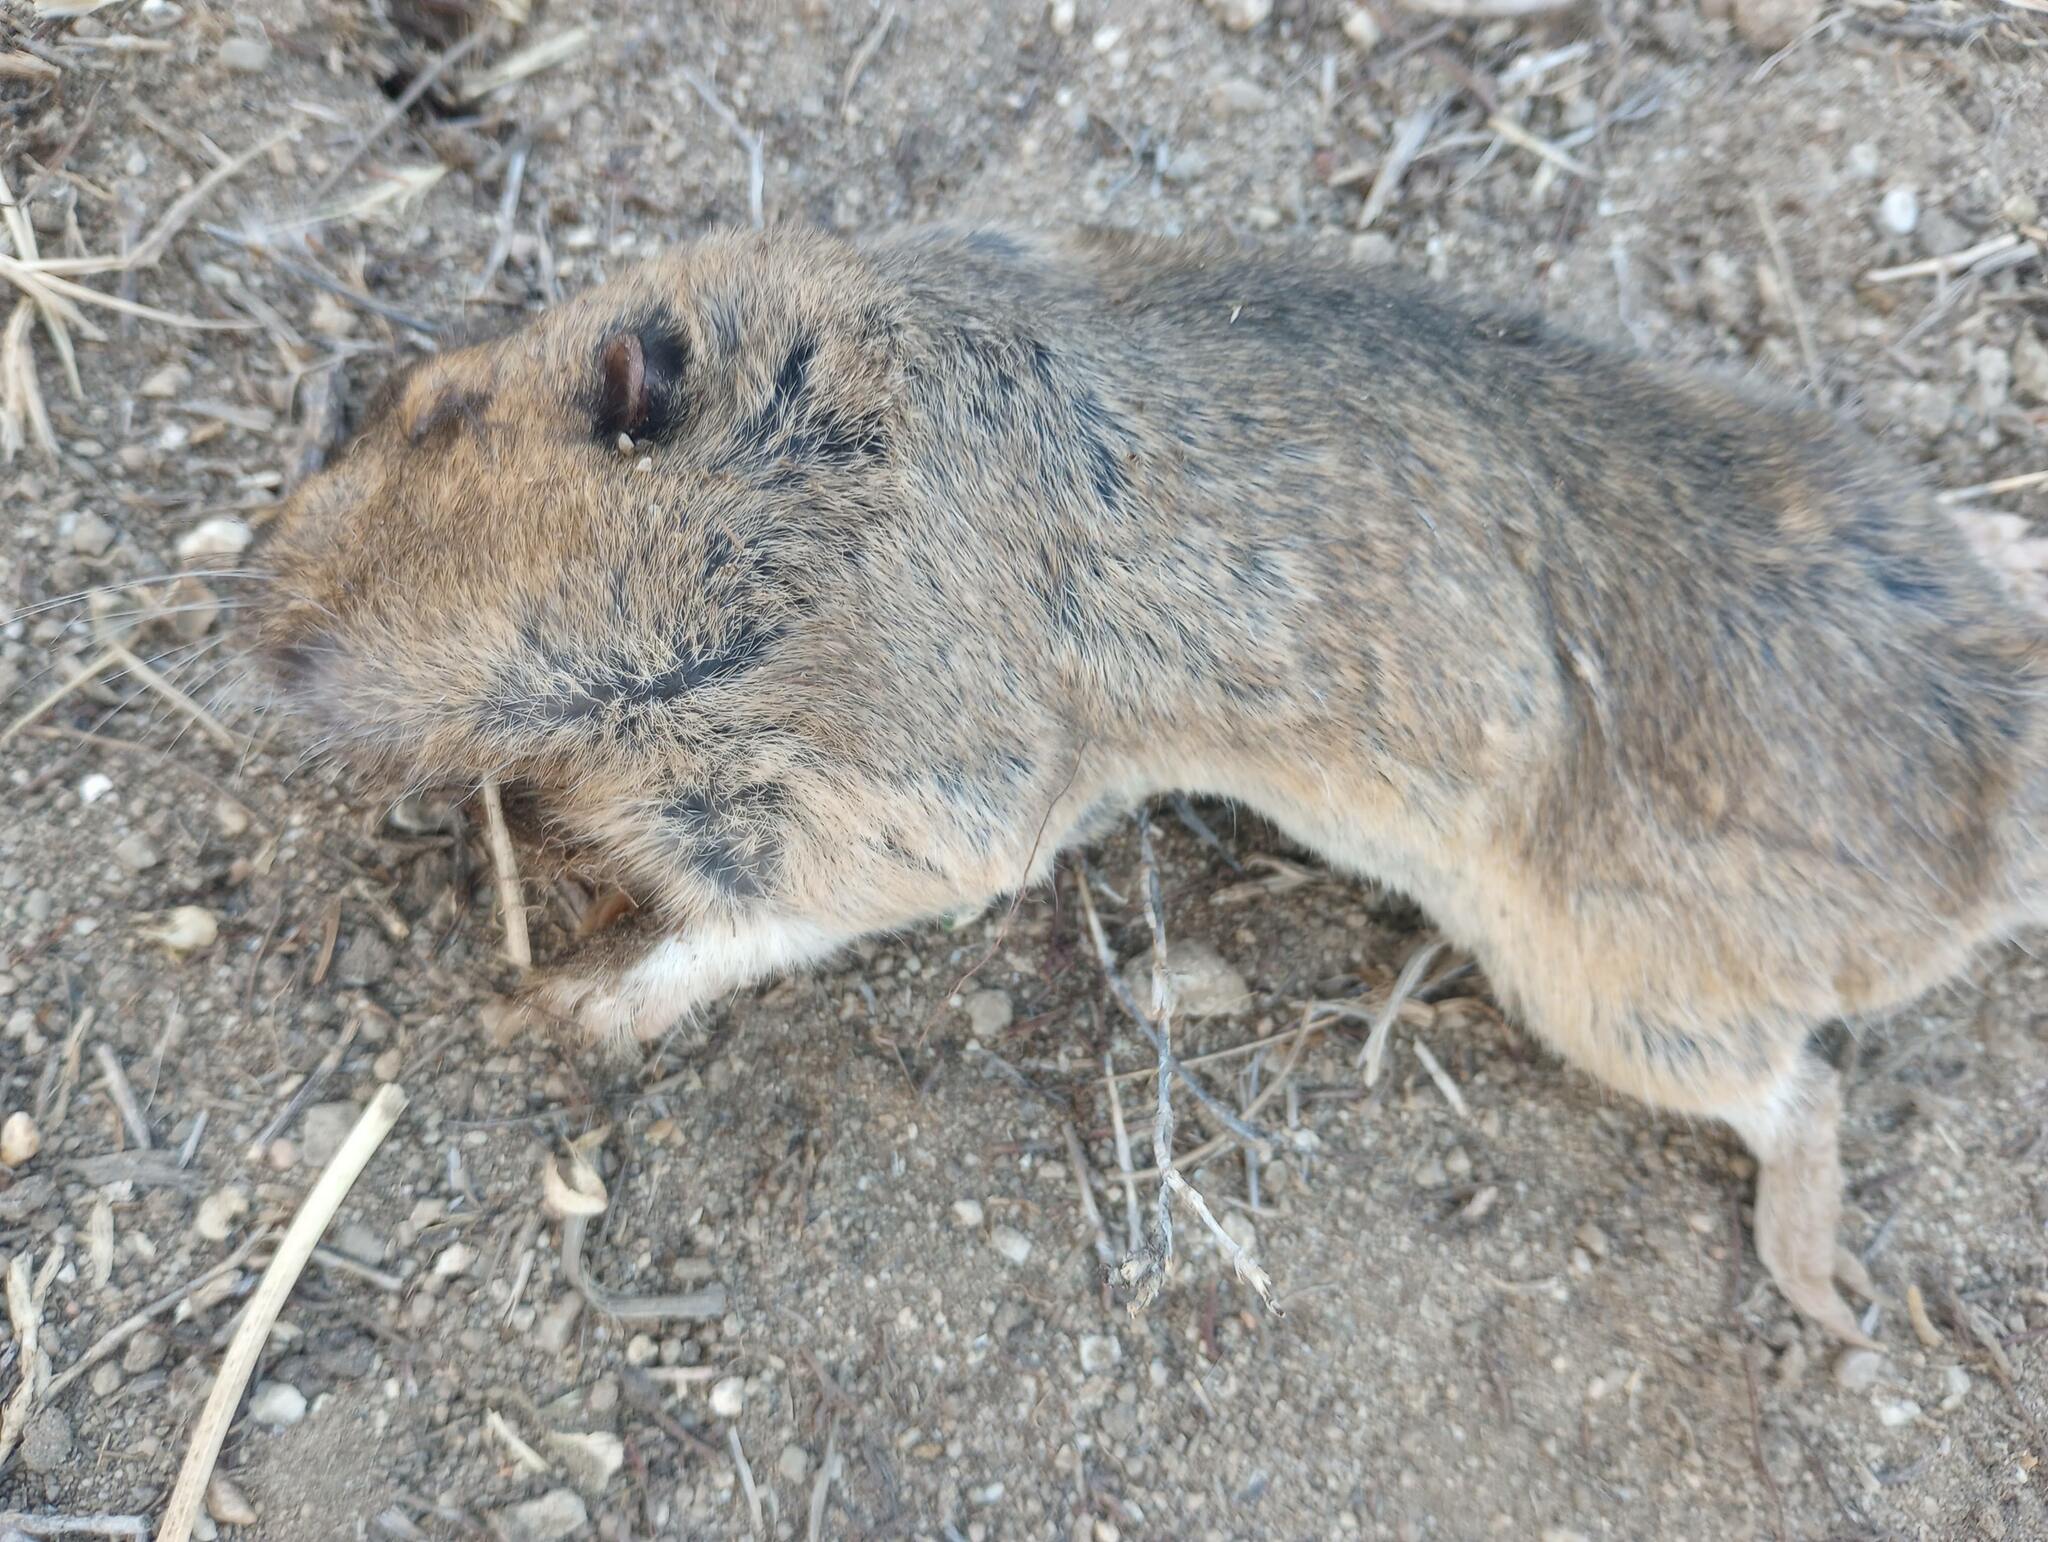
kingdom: Animalia
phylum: Chordata
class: Mammalia
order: Rodentia
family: Geomyidae
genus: Thomomys
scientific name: Thomomys bottae
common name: Botta's pocket gopher
